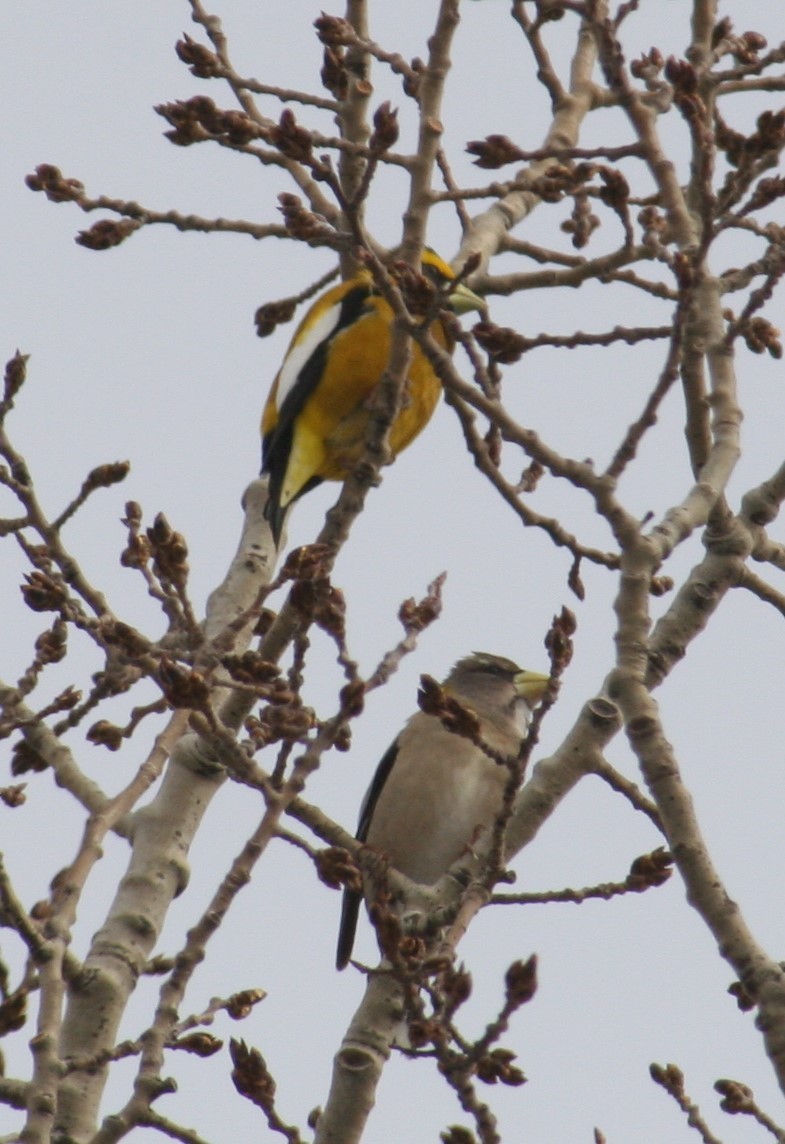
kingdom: Animalia
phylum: Chordata
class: Aves
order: Passeriformes
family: Fringillidae
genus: Hesperiphona
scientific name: Hesperiphona vespertina
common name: Evening grosbeak
